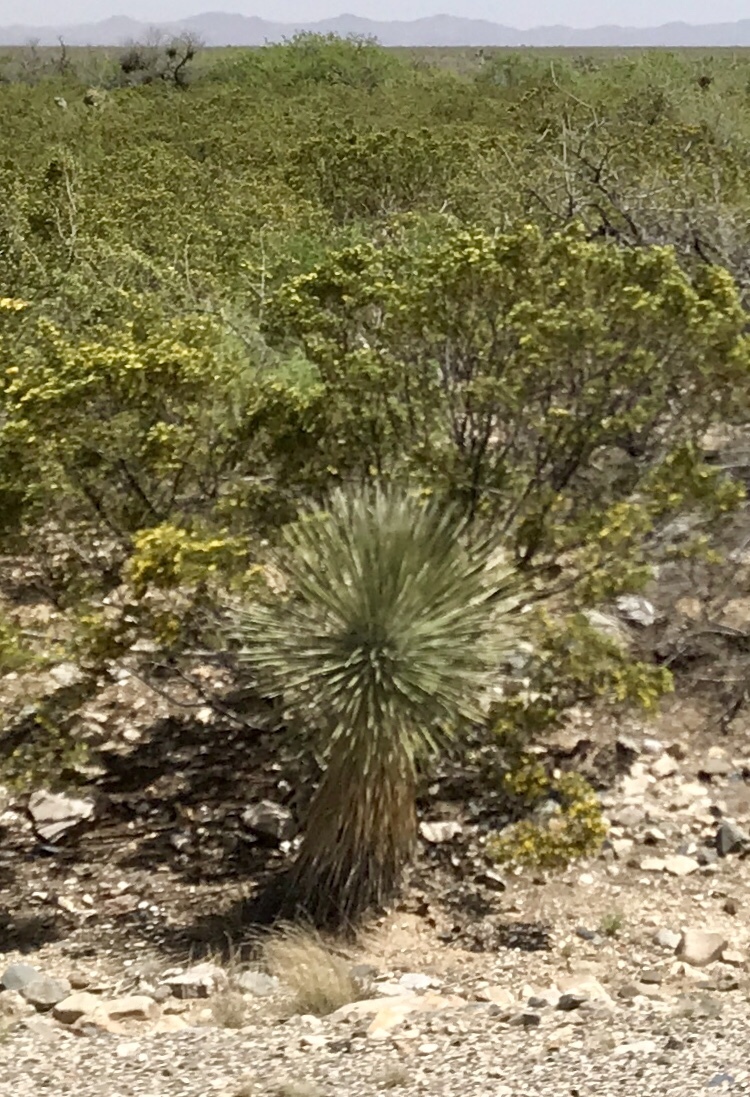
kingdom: Plantae
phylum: Tracheophyta
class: Liliopsida
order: Asparagales
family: Asparagaceae
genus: Yucca
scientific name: Yucca elata
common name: Palmella
